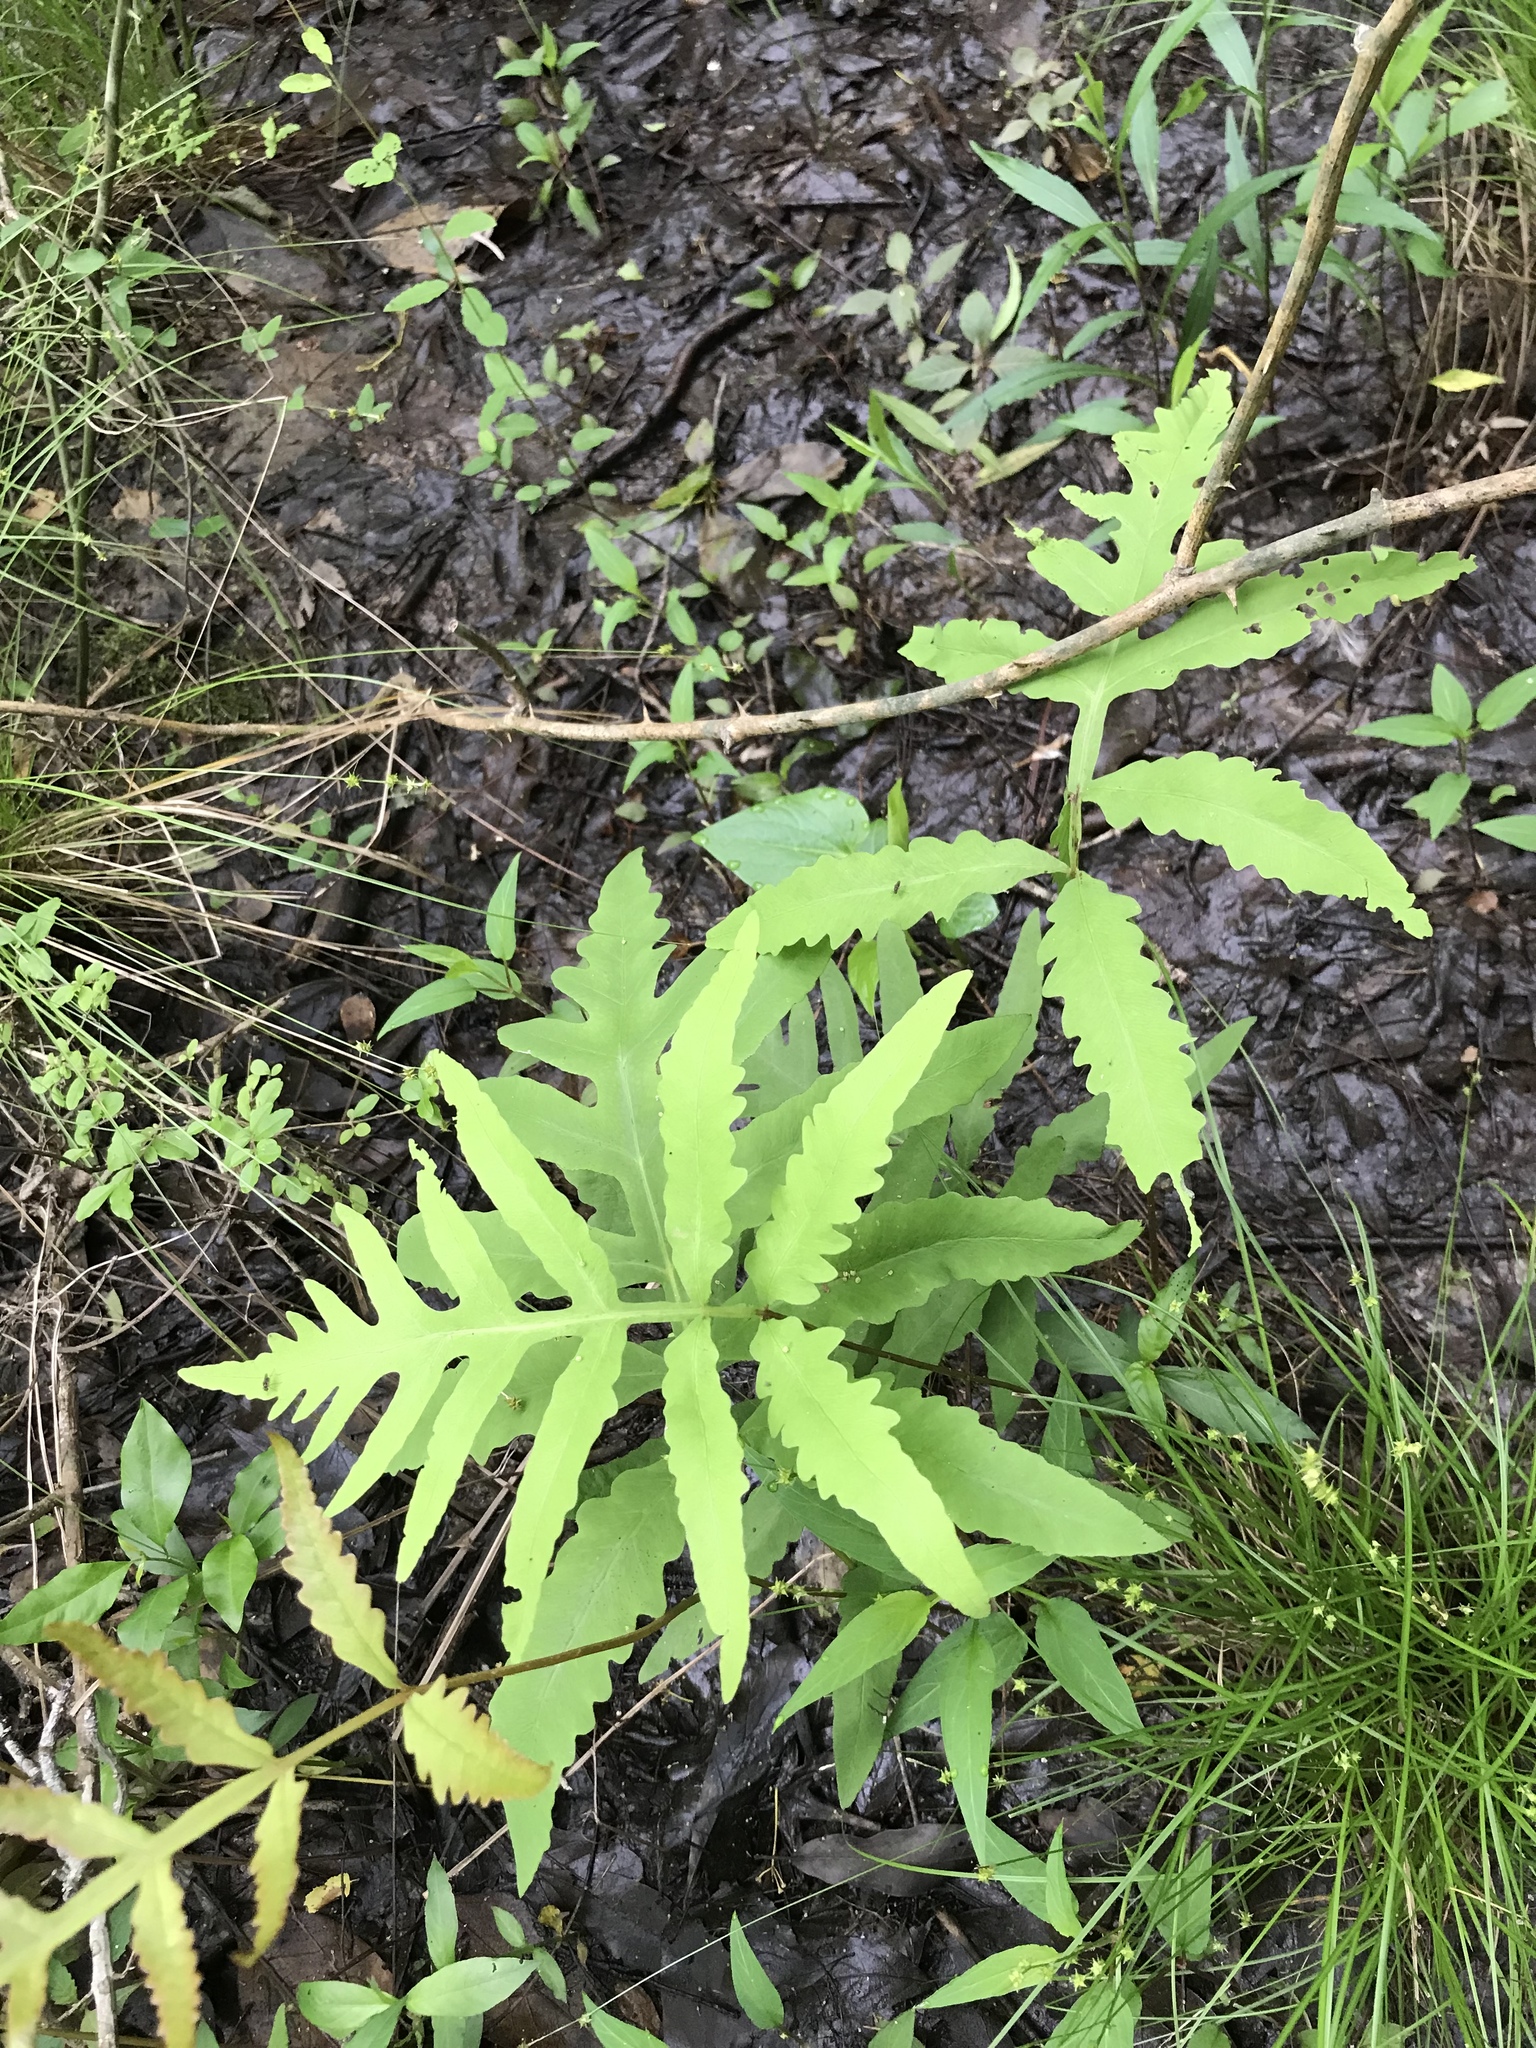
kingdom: Plantae
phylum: Tracheophyta
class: Polypodiopsida
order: Polypodiales
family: Onocleaceae
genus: Onoclea
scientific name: Onoclea sensibilis
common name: Sensitive fern
